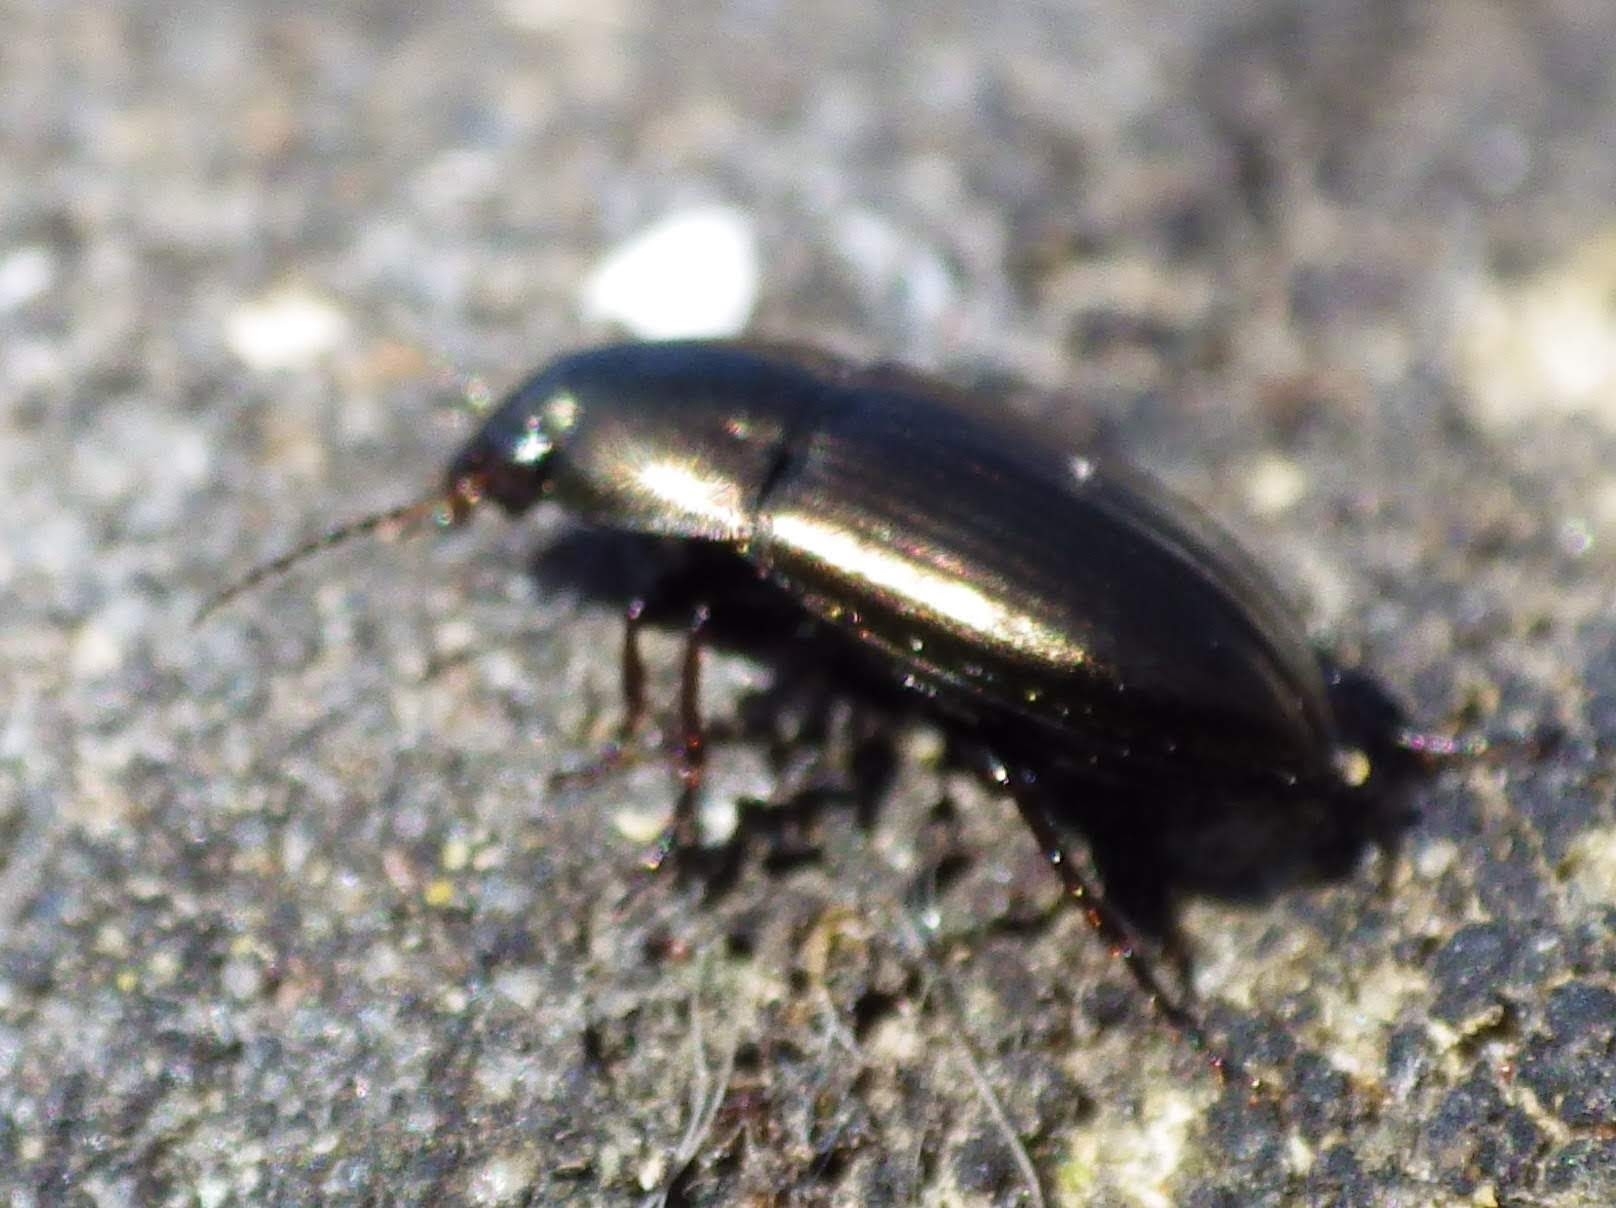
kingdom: Animalia
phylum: Arthropoda
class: Insecta
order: Coleoptera
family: Carabidae
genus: Amara
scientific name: Amara aenea
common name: Common sun beetle
